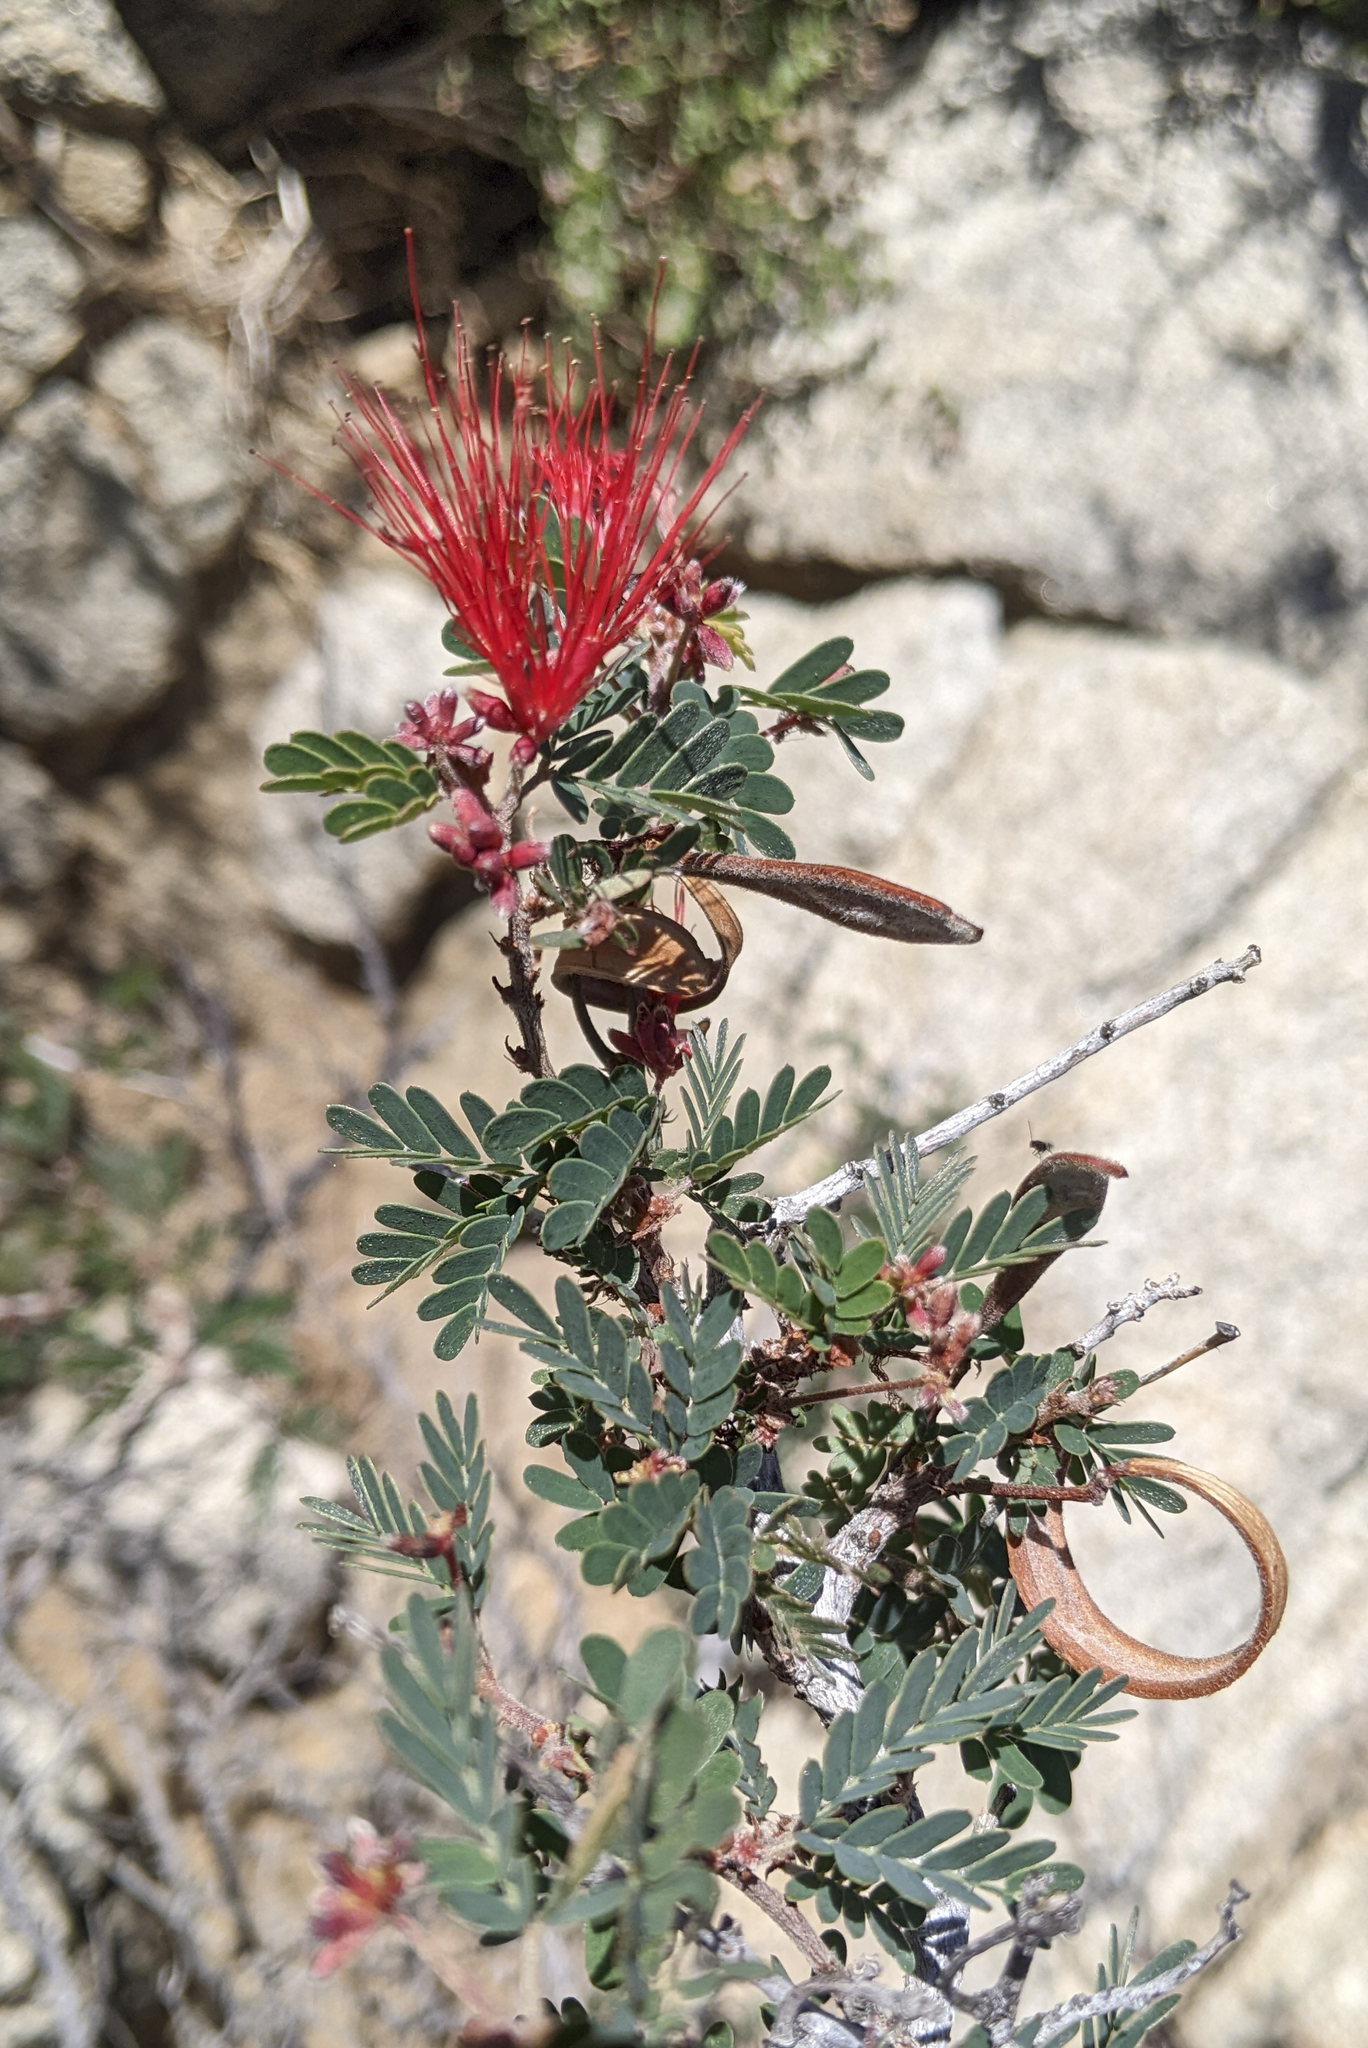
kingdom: Plantae
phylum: Tracheophyta
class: Magnoliopsida
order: Fabales
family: Fabaceae
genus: Calliandra
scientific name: Calliandra californica
